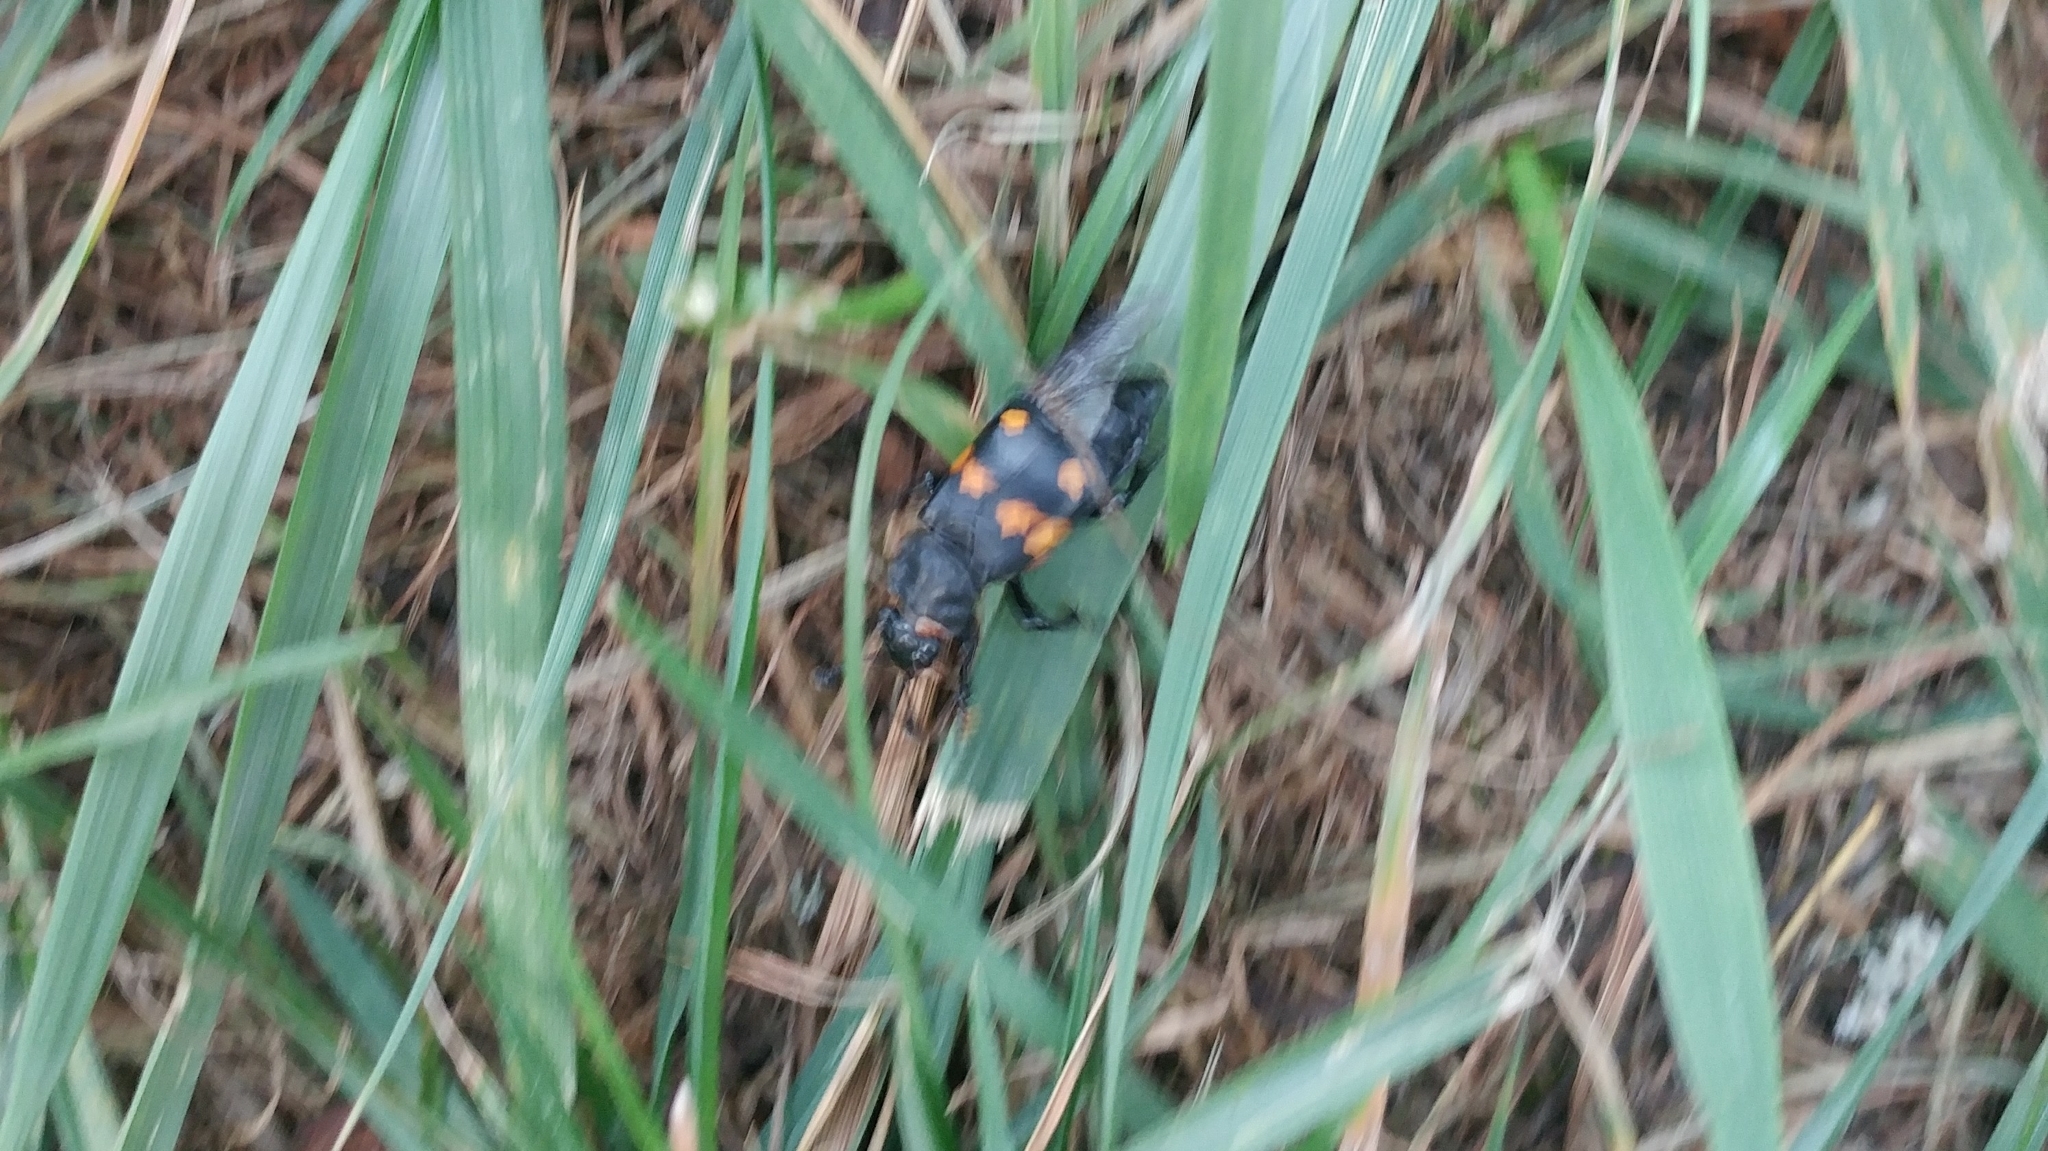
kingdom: Animalia
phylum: Arthropoda
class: Insecta
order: Coleoptera
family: Staphylinidae
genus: Nicrophorus
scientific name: Nicrophorus defodiens
